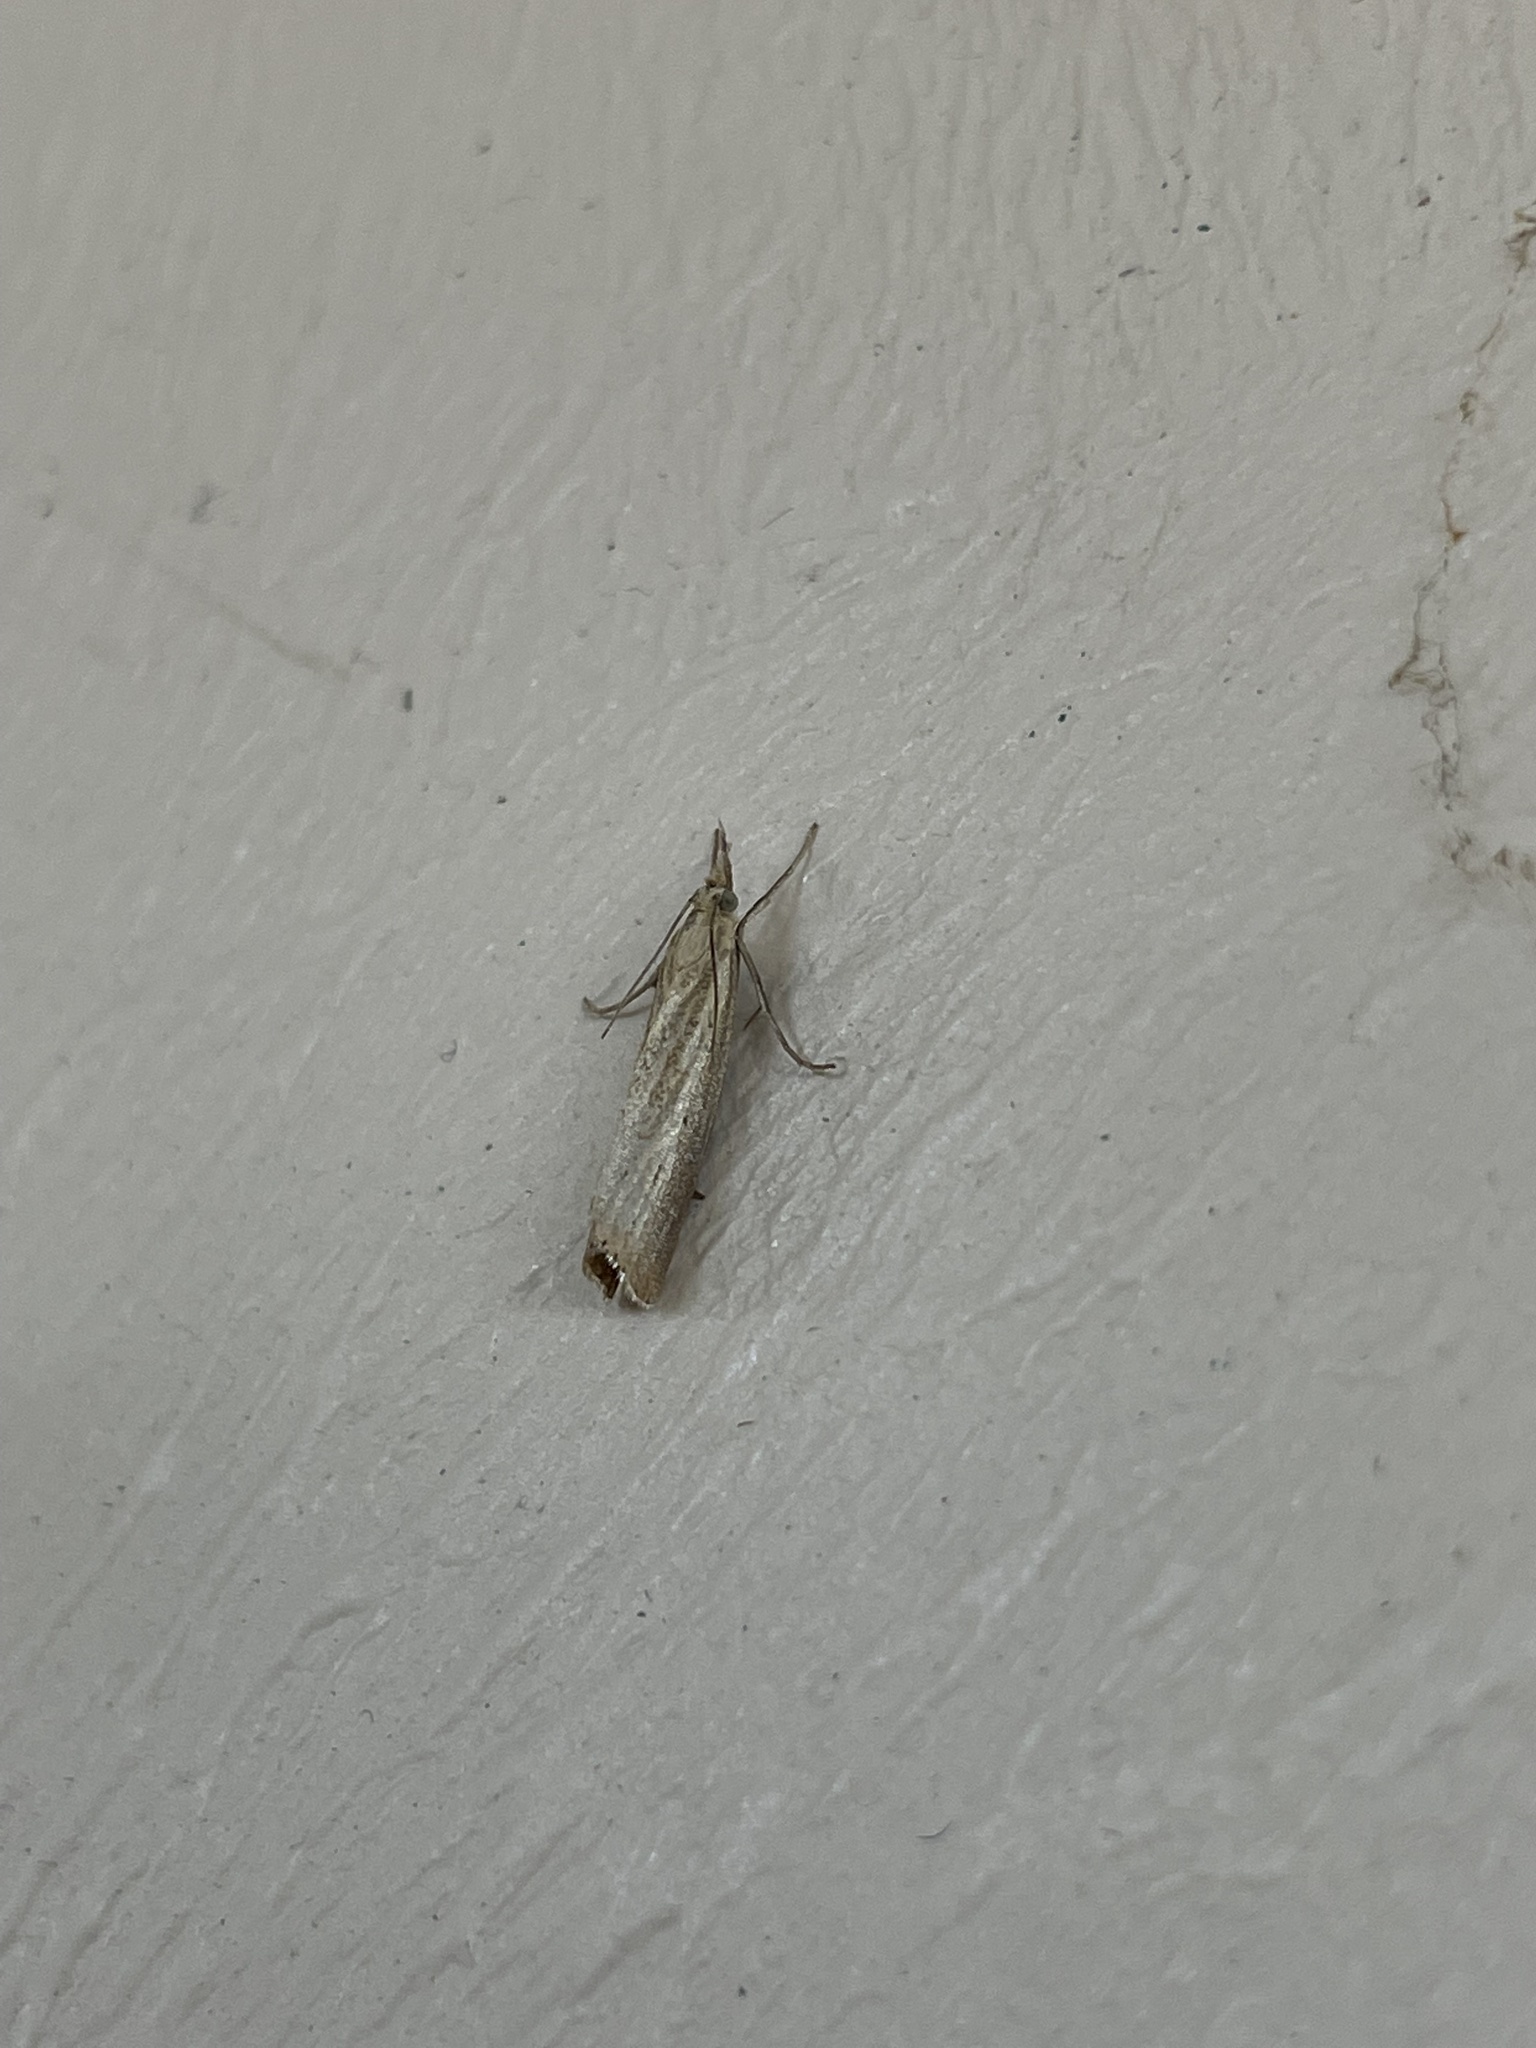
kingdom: Animalia
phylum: Arthropoda
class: Insecta
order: Lepidoptera
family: Crambidae
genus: Agriphila
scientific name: Agriphila straminella
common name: Straw grass-veneer
